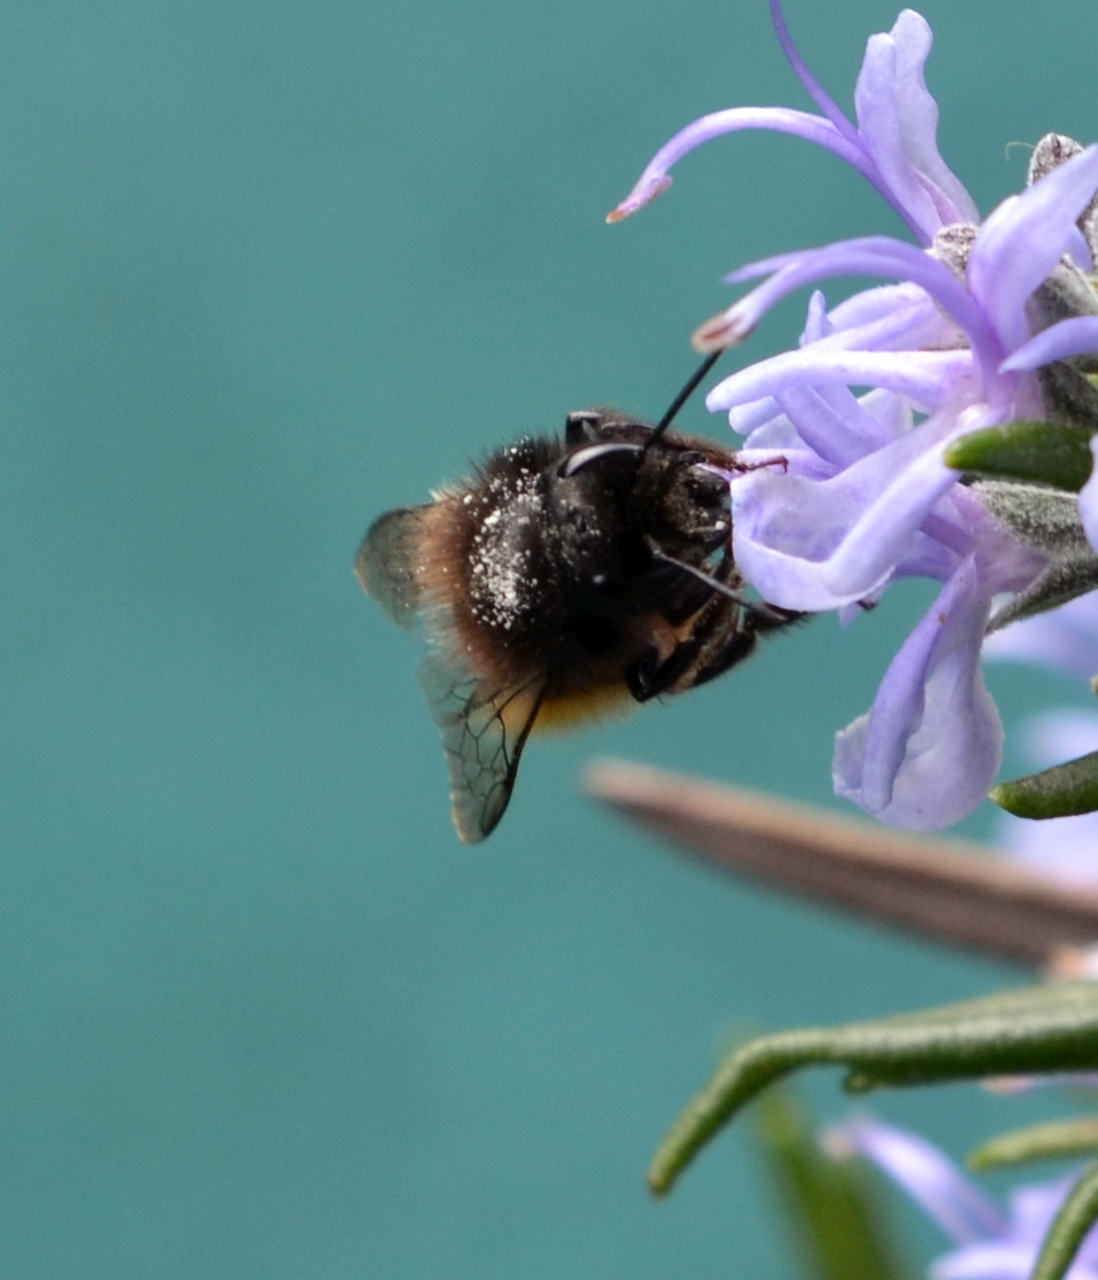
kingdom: Animalia
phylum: Arthropoda
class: Insecta
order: Hymenoptera
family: Megachilidae
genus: Osmia
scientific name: Osmia cornuta
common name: Mason bee
